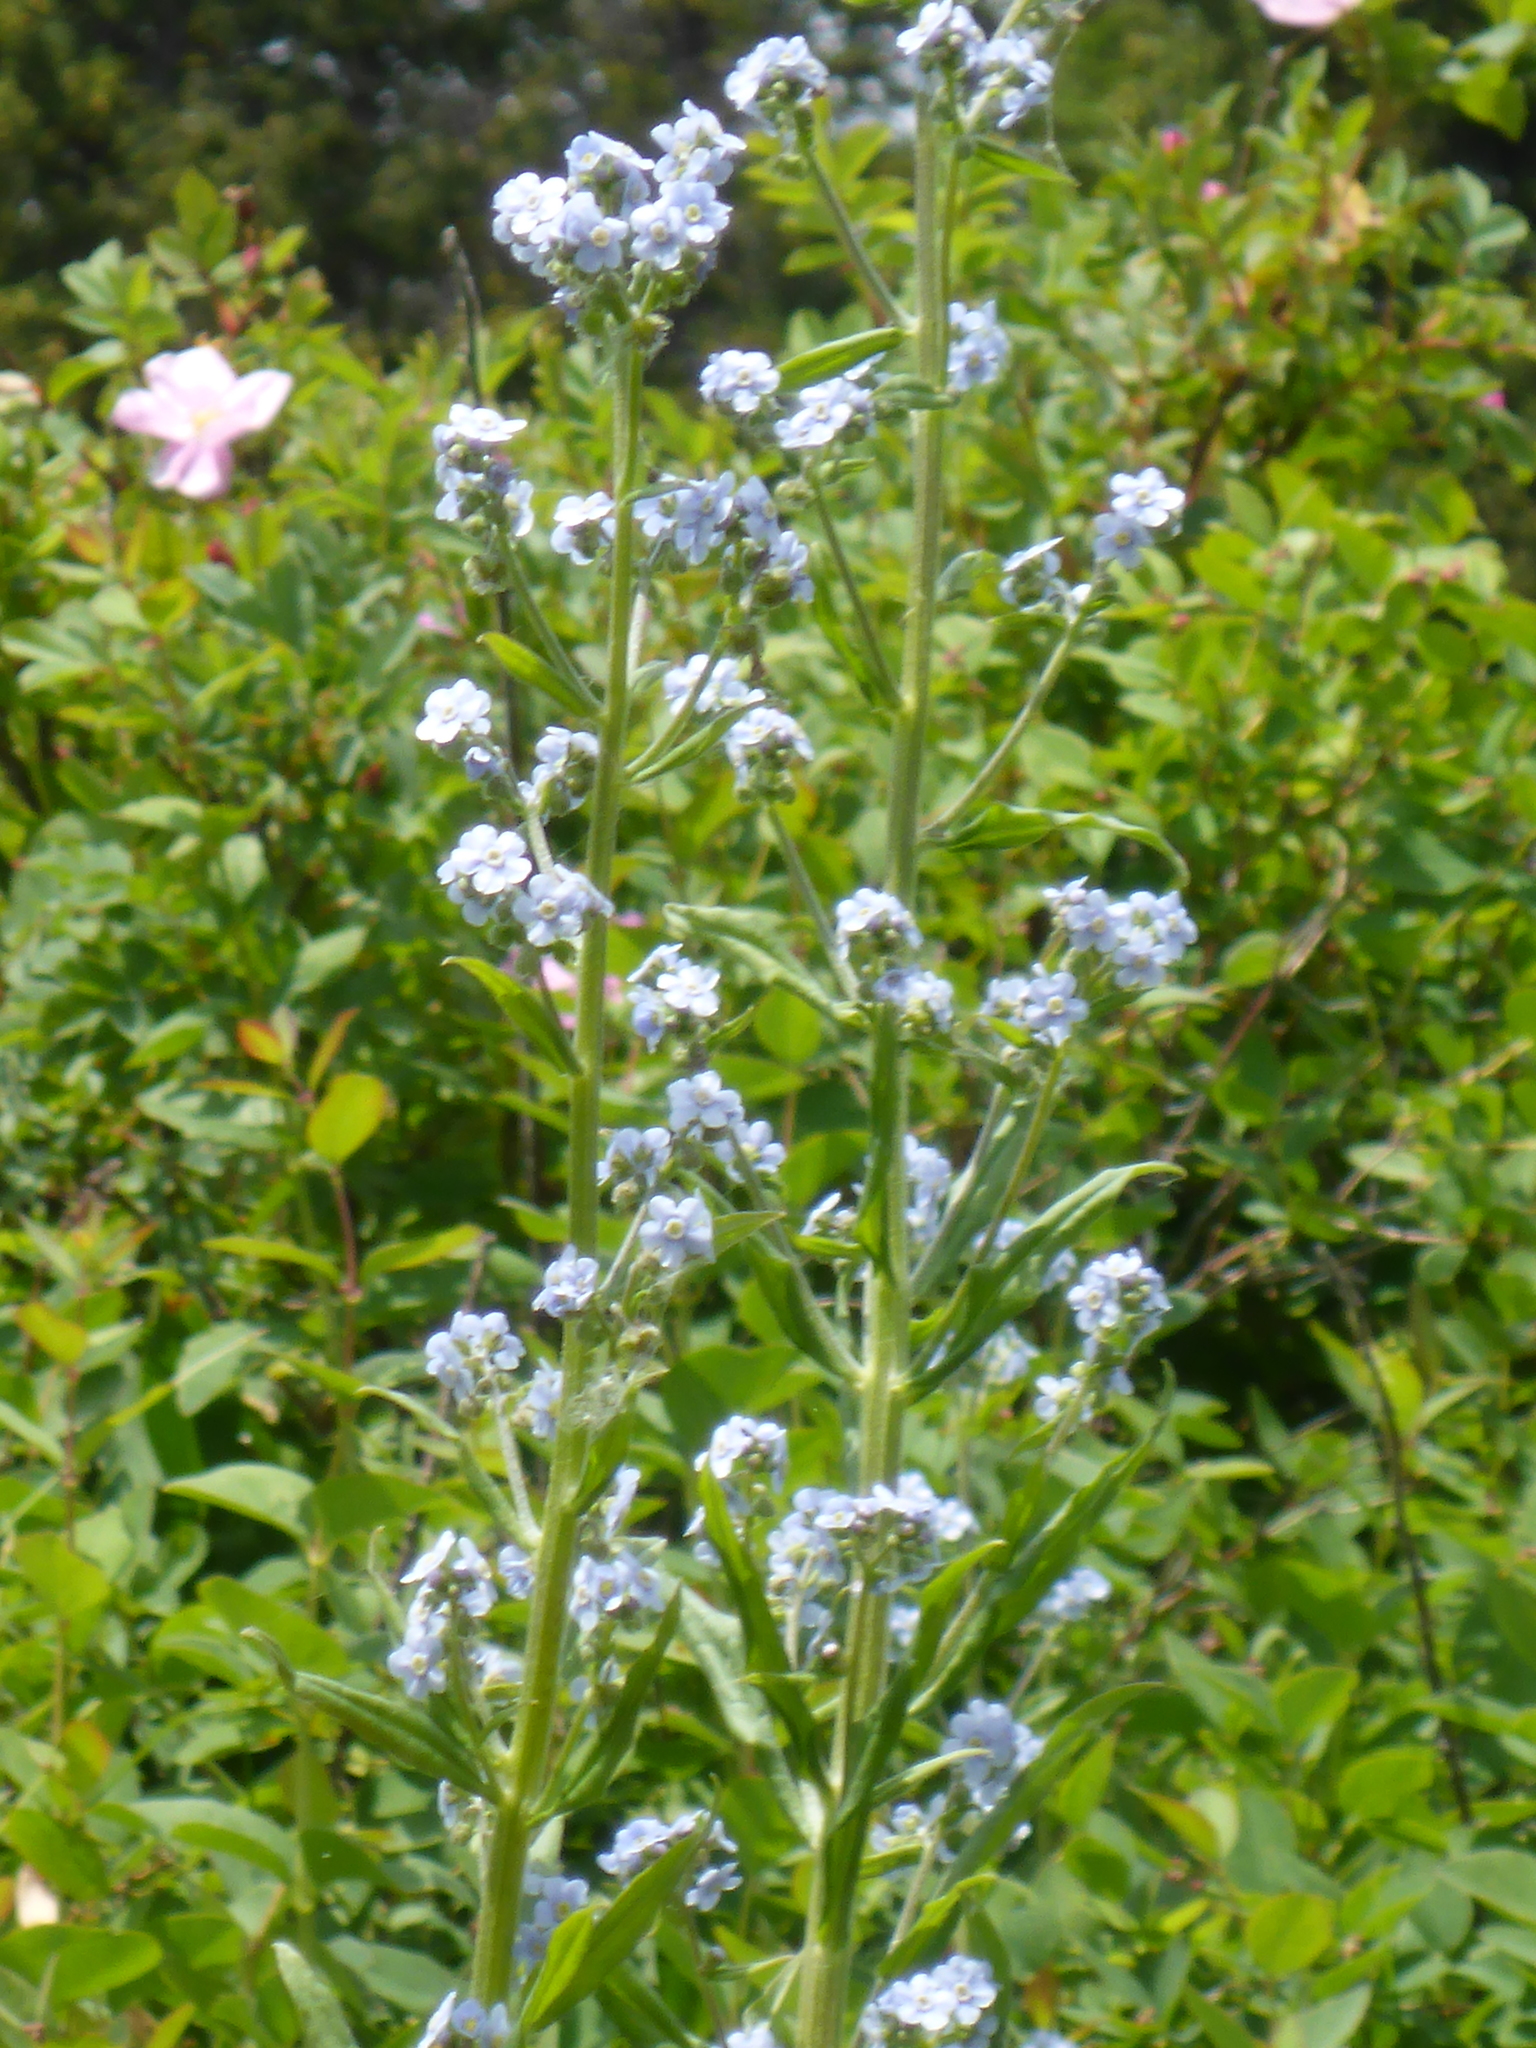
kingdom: Plantae
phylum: Tracheophyta
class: Magnoliopsida
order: Boraginales
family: Boraginaceae
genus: Hackelia
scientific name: Hackelia micrantha
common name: Meadow stickseed
